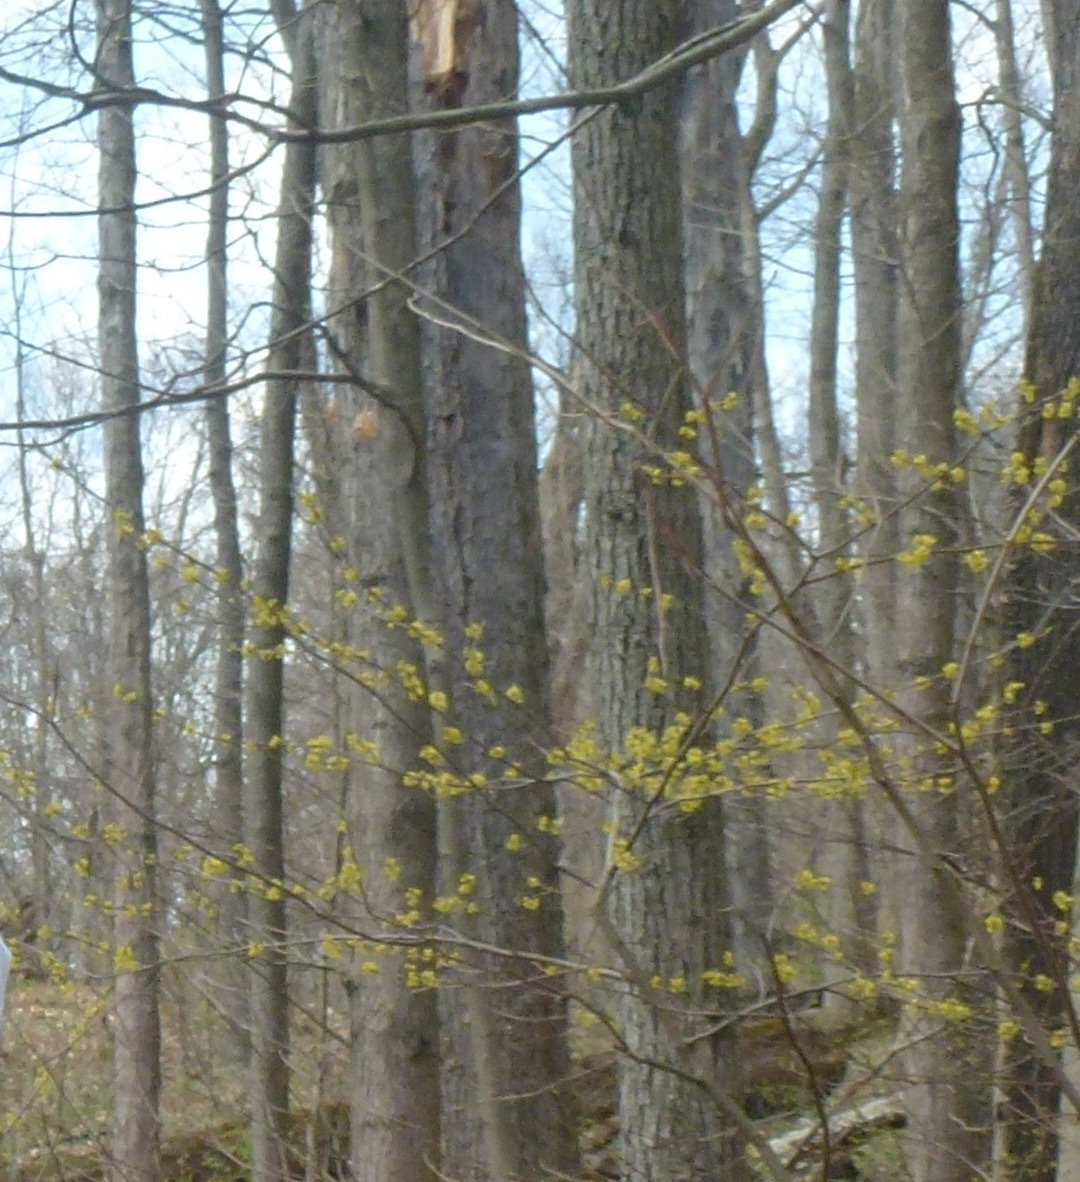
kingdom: Plantae
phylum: Tracheophyta
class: Magnoliopsida
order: Laurales
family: Lauraceae
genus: Lindera
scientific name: Lindera benzoin
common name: Spicebush
